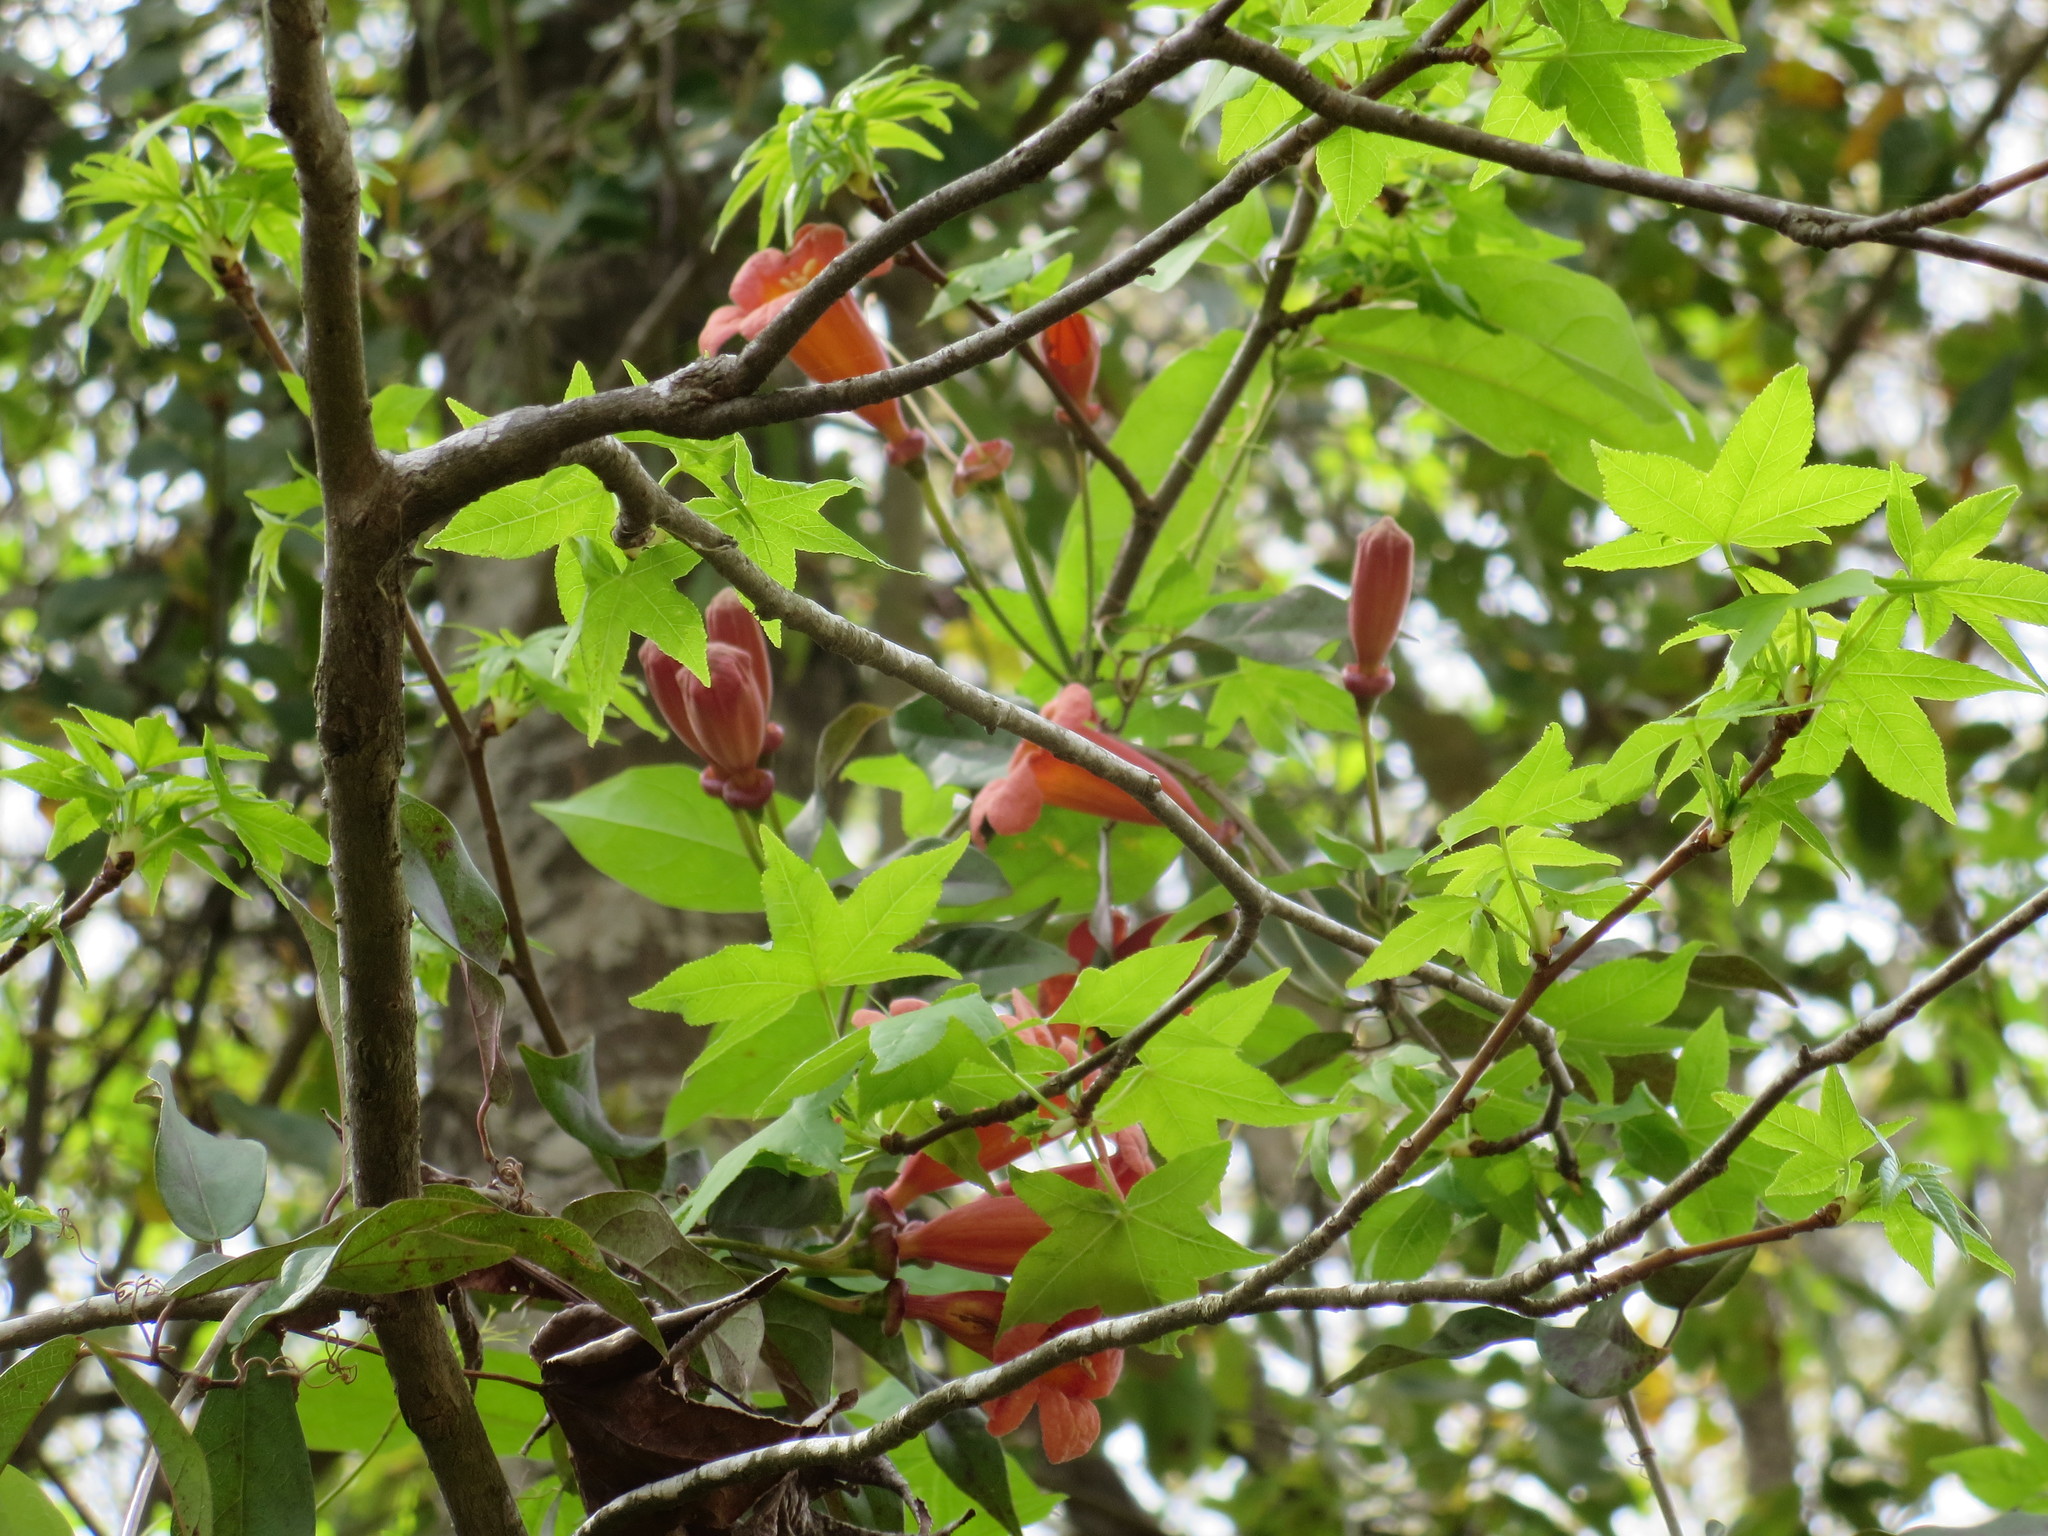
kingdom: Plantae
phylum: Tracheophyta
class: Magnoliopsida
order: Lamiales
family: Bignoniaceae
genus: Bignonia
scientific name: Bignonia capreolata
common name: Crossvine
